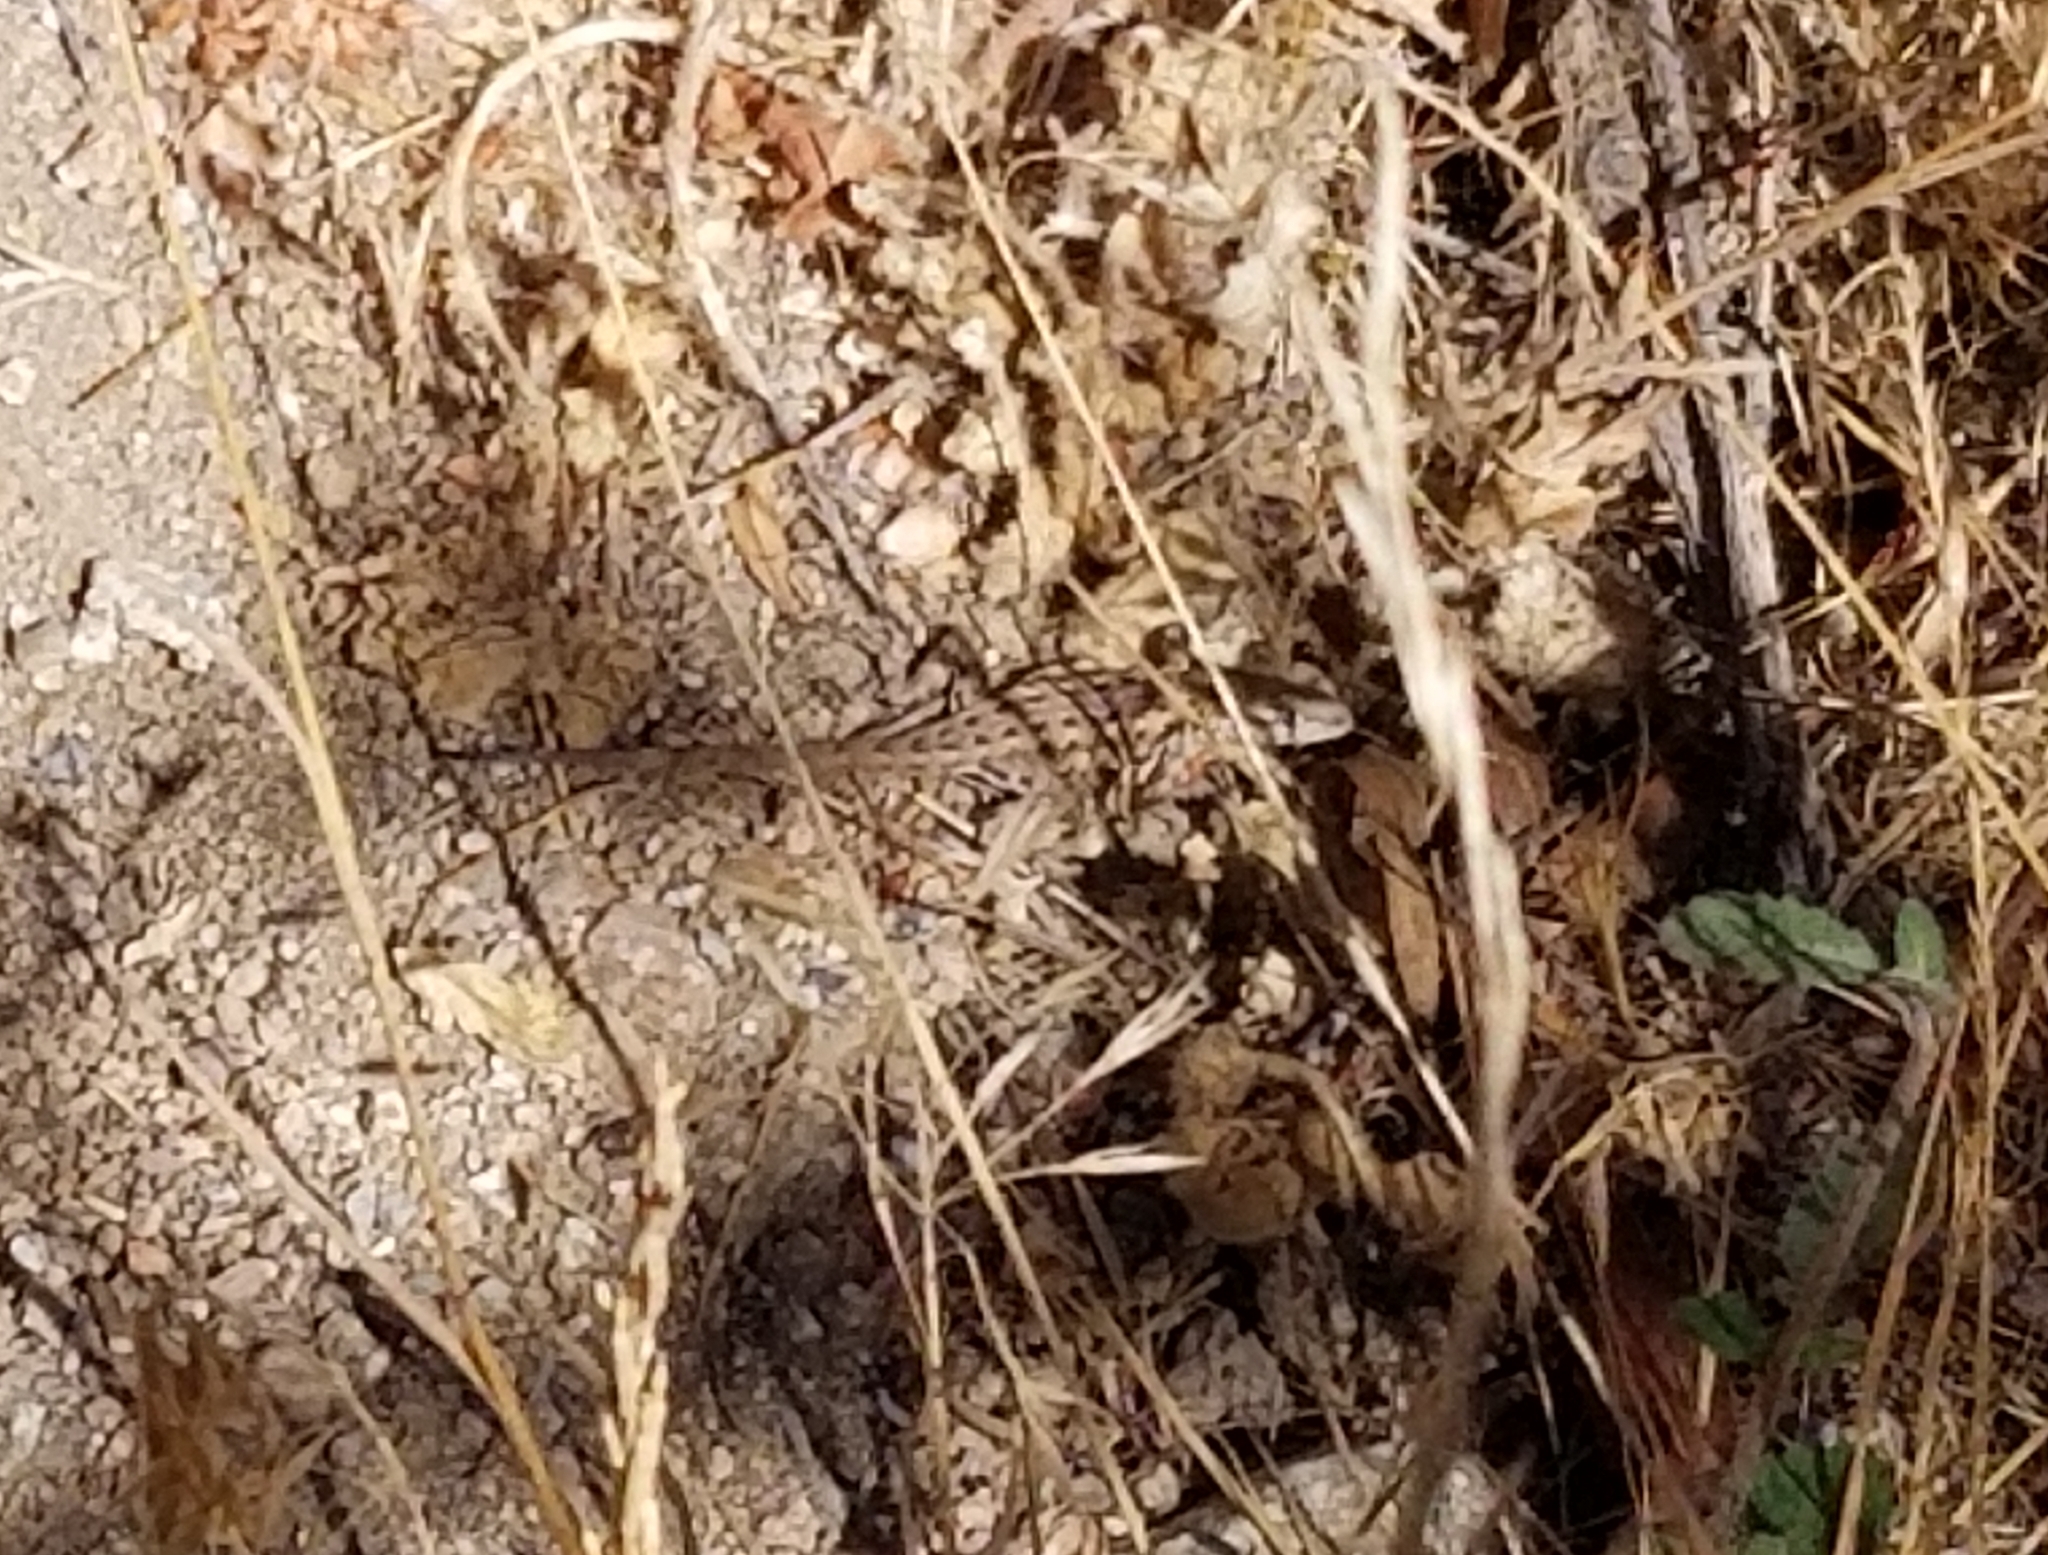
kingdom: Animalia
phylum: Chordata
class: Squamata
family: Phrynosomatidae
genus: Uta
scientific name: Uta stansburiana
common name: Side-blotched lizard
